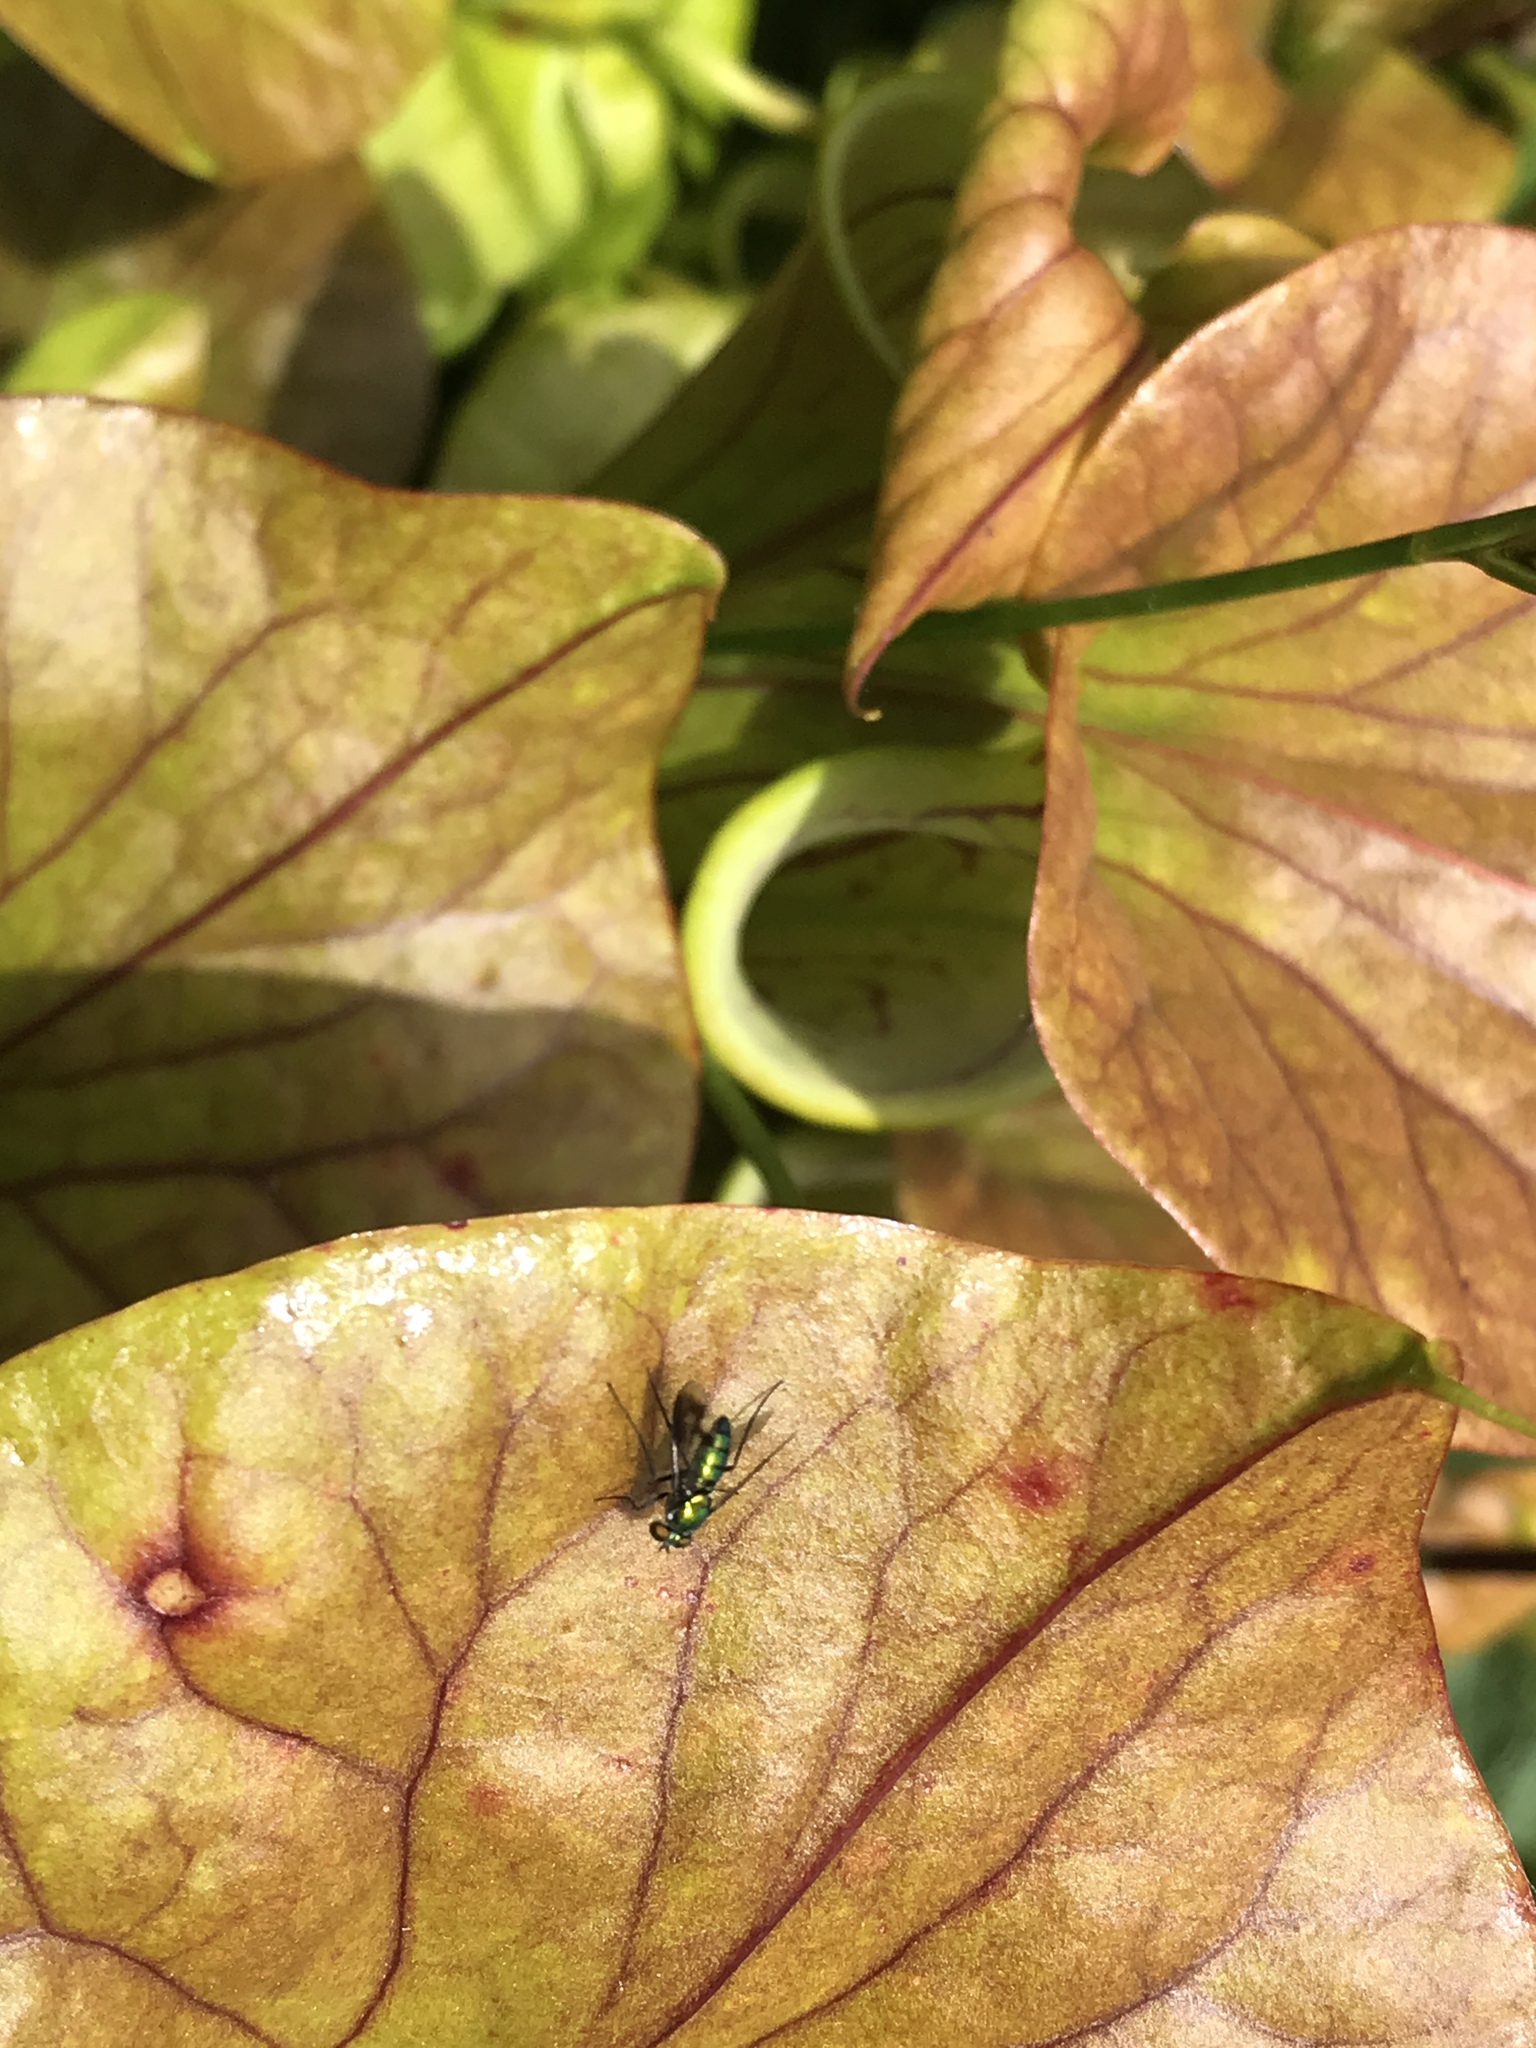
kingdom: Animalia
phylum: Arthropoda
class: Insecta
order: Diptera
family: Dolichopodidae
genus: Condylostylus
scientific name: Condylostylus patibulatus
